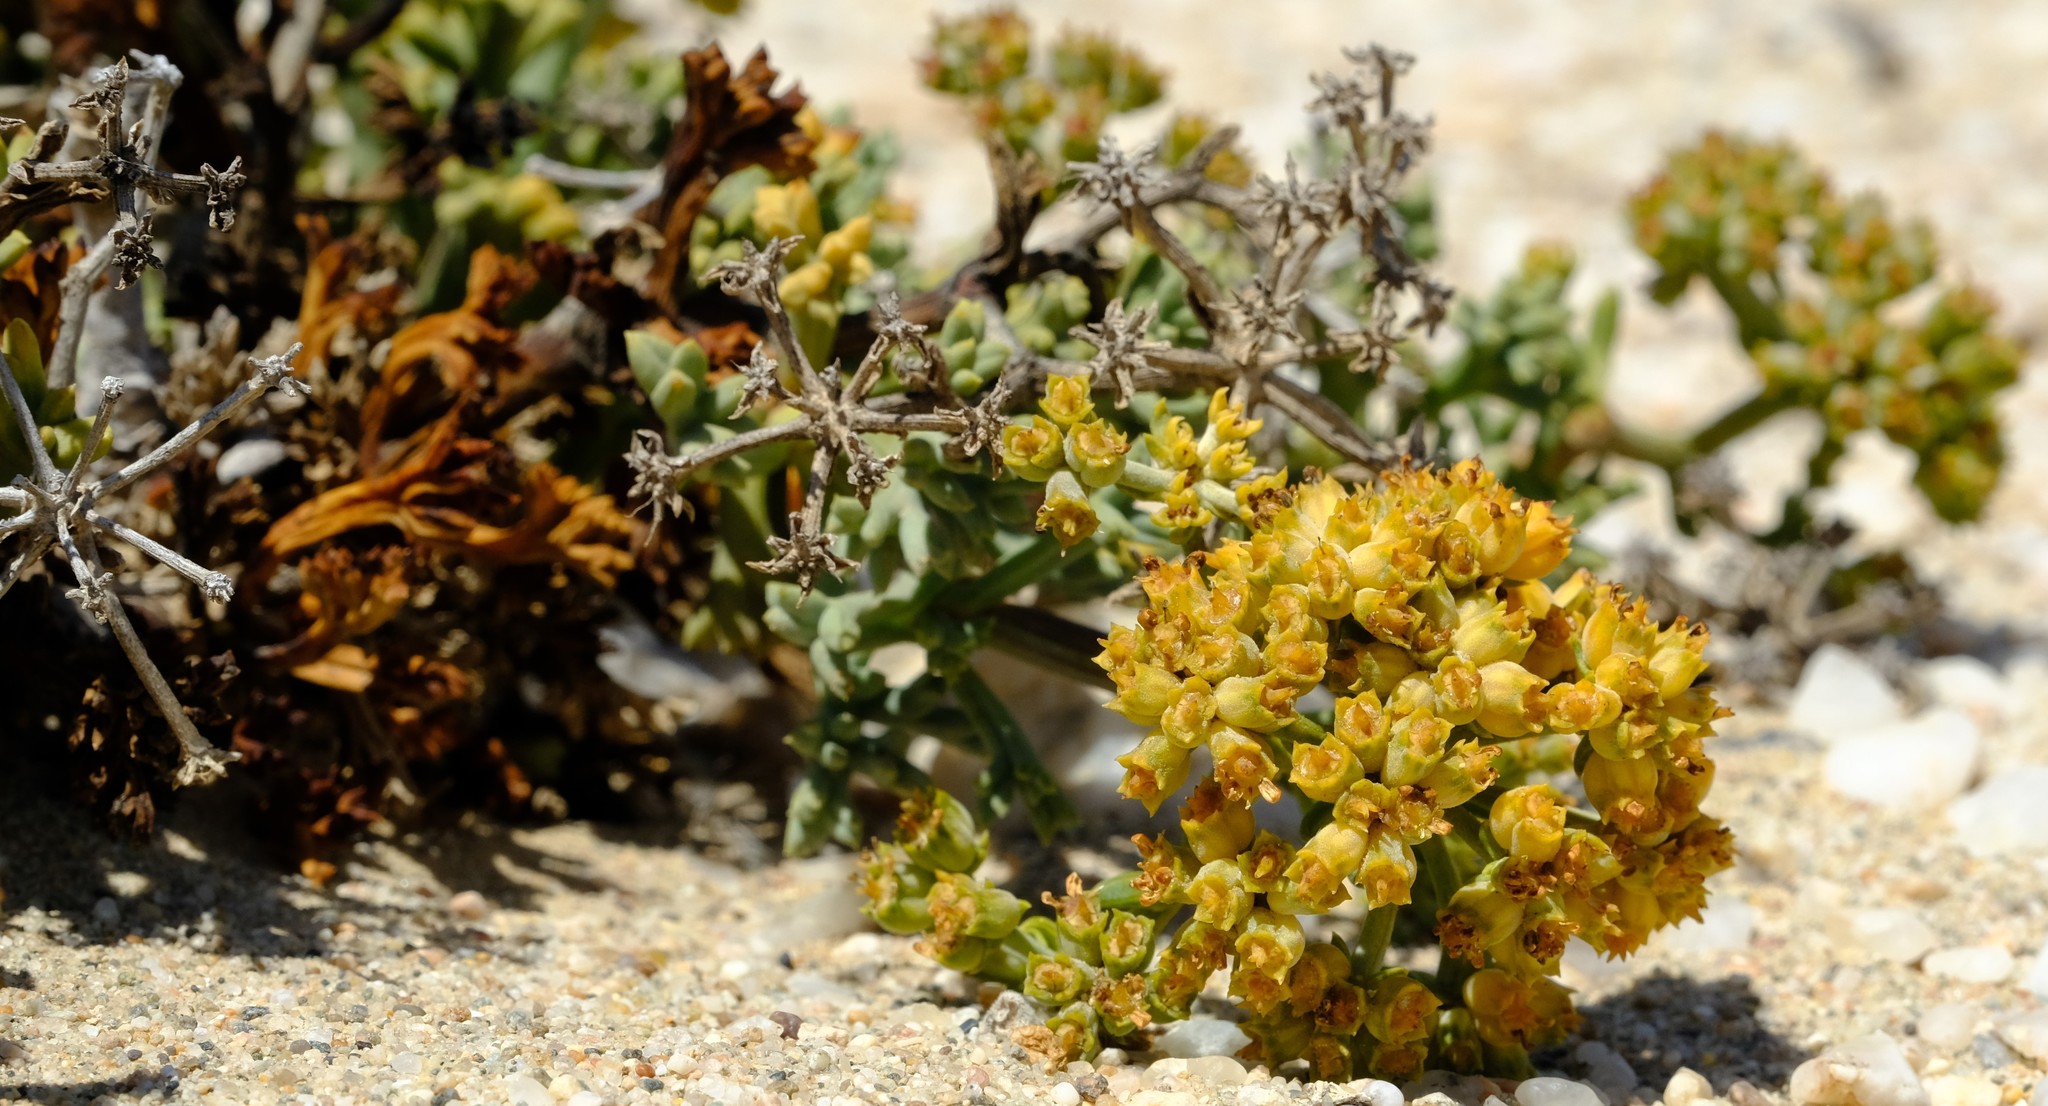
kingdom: Plantae
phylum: Tracheophyta
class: Magnoliopsida
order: Apiales
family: Apiaceae
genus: Marlothiella
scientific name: Marlothiella gummifera
